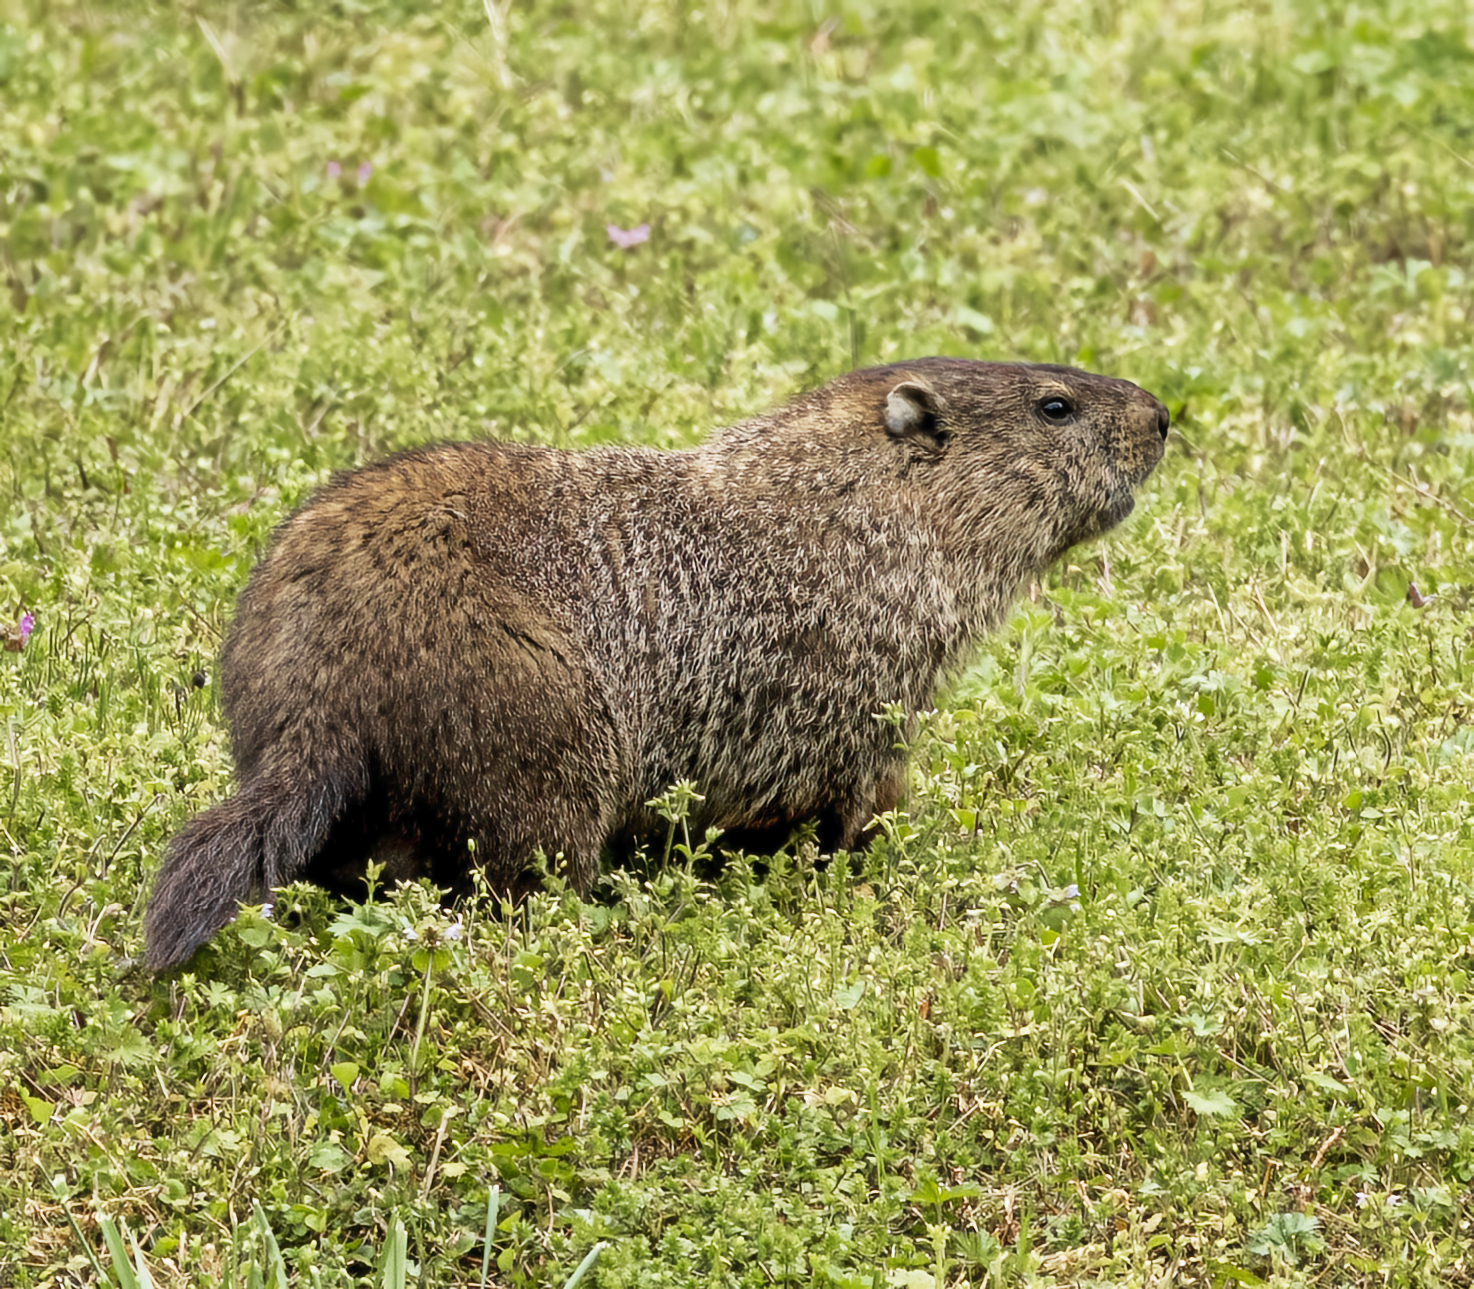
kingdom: Animalia
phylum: Chordata
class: Mammalia
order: Rodentia
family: Sciuridae
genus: Marmota
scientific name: Marmota monax
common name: Groundhog
